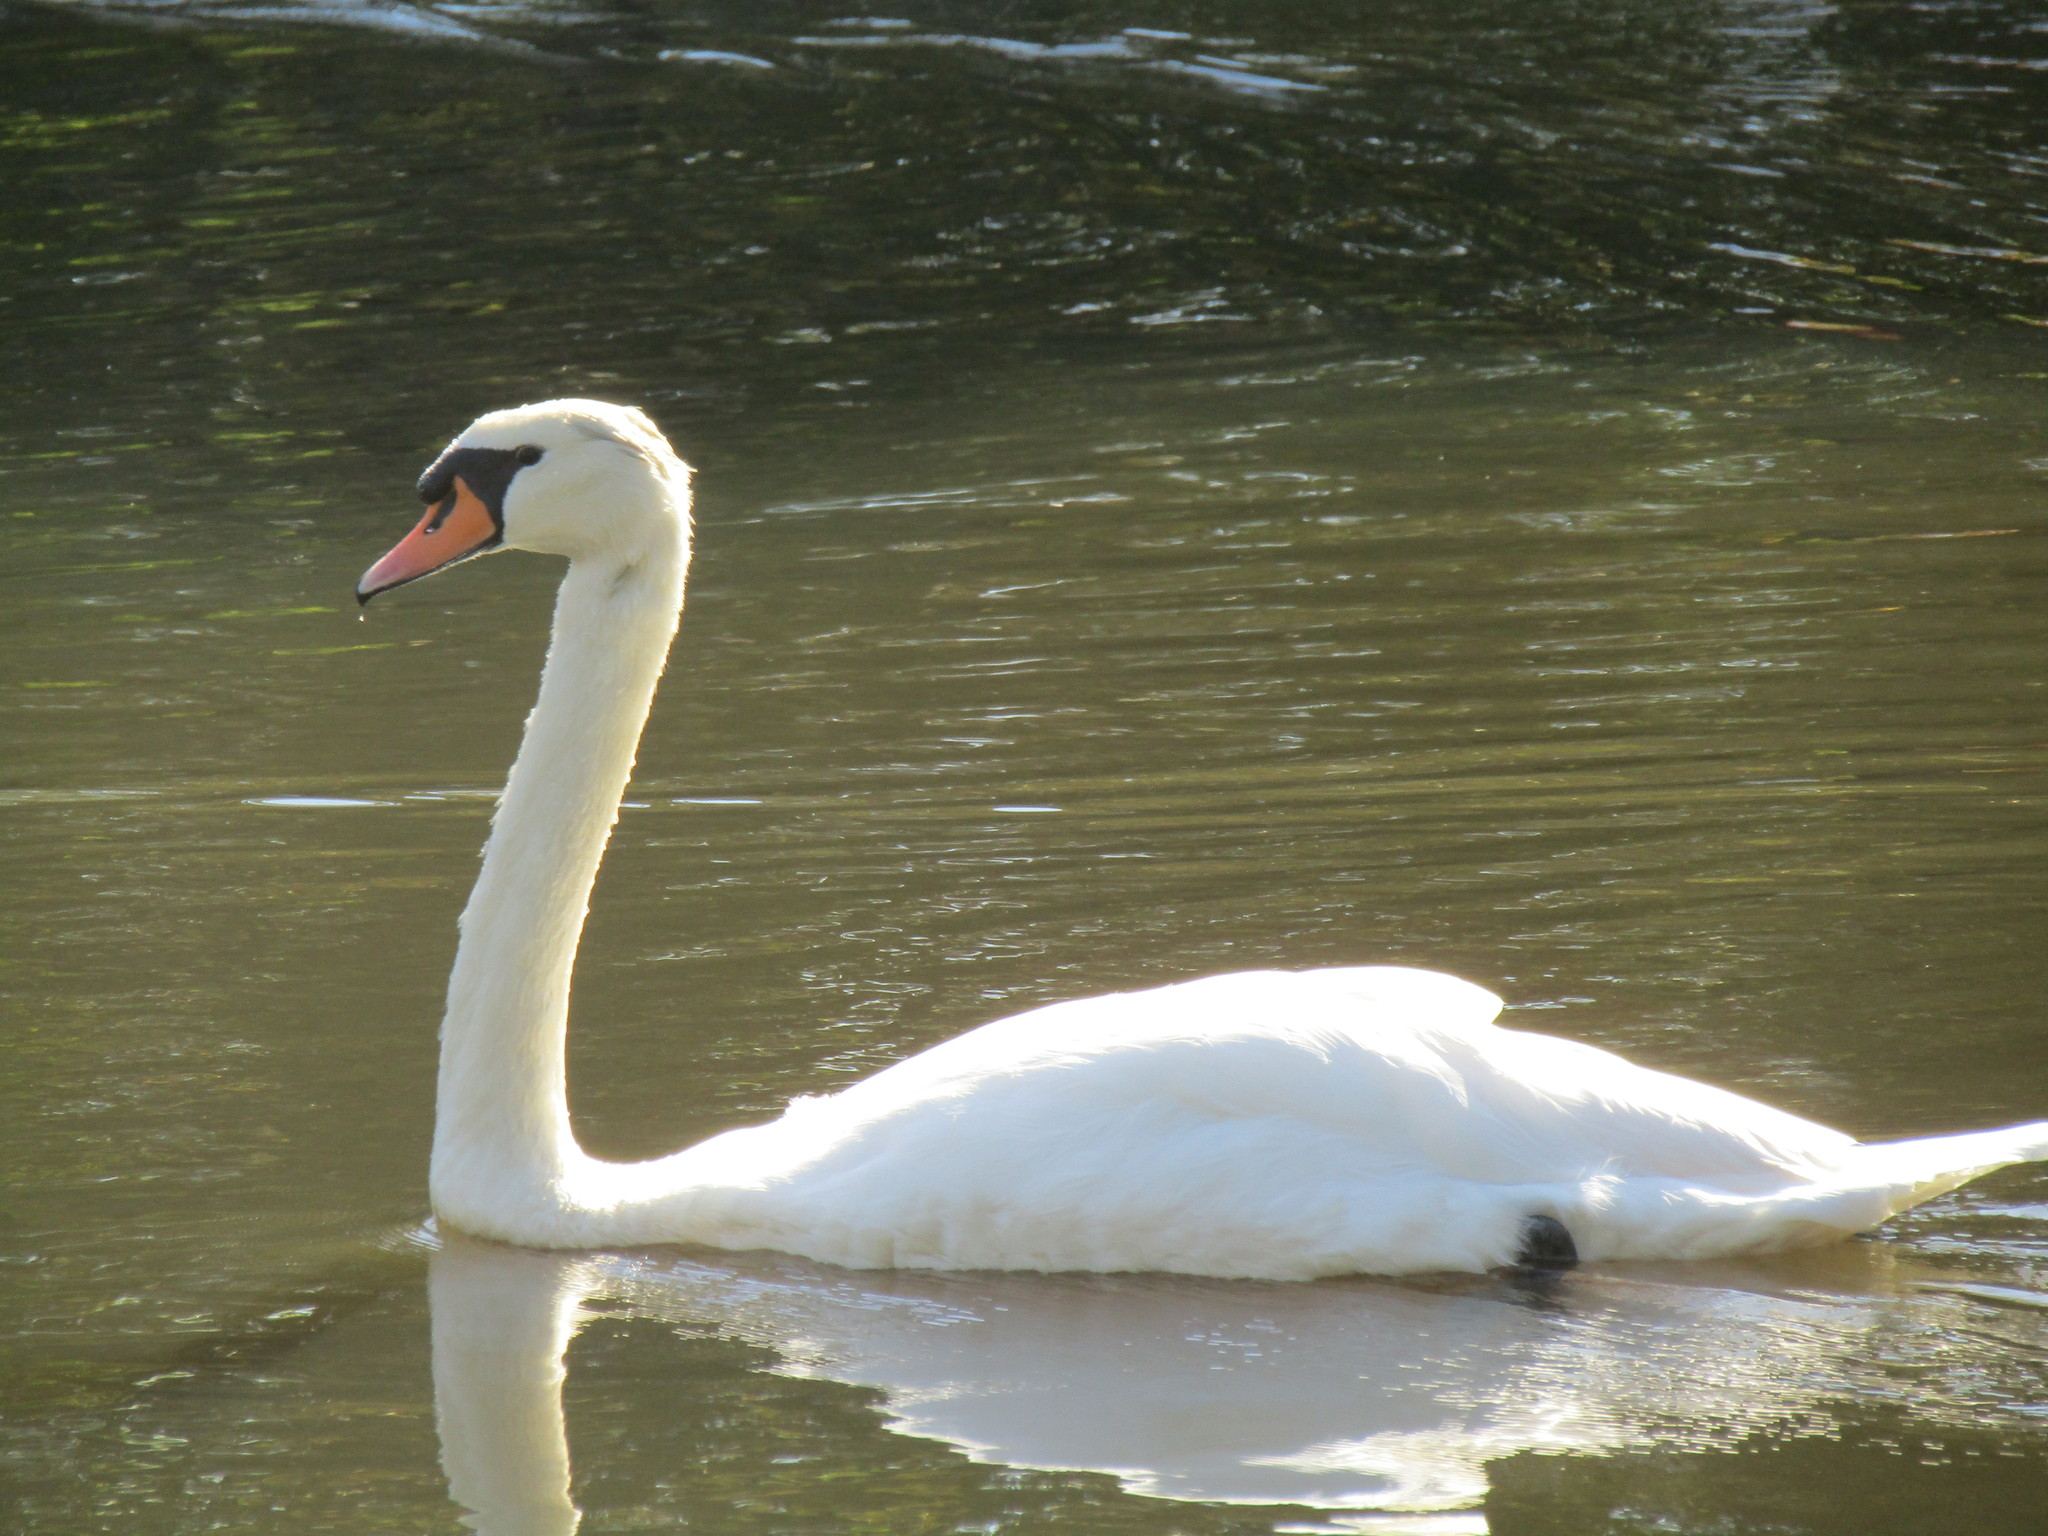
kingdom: Animalia
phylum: Chordata
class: Aves
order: Anseriformes
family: Anatidae
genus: Cygnus
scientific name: Cygnus olor
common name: Mute swan
